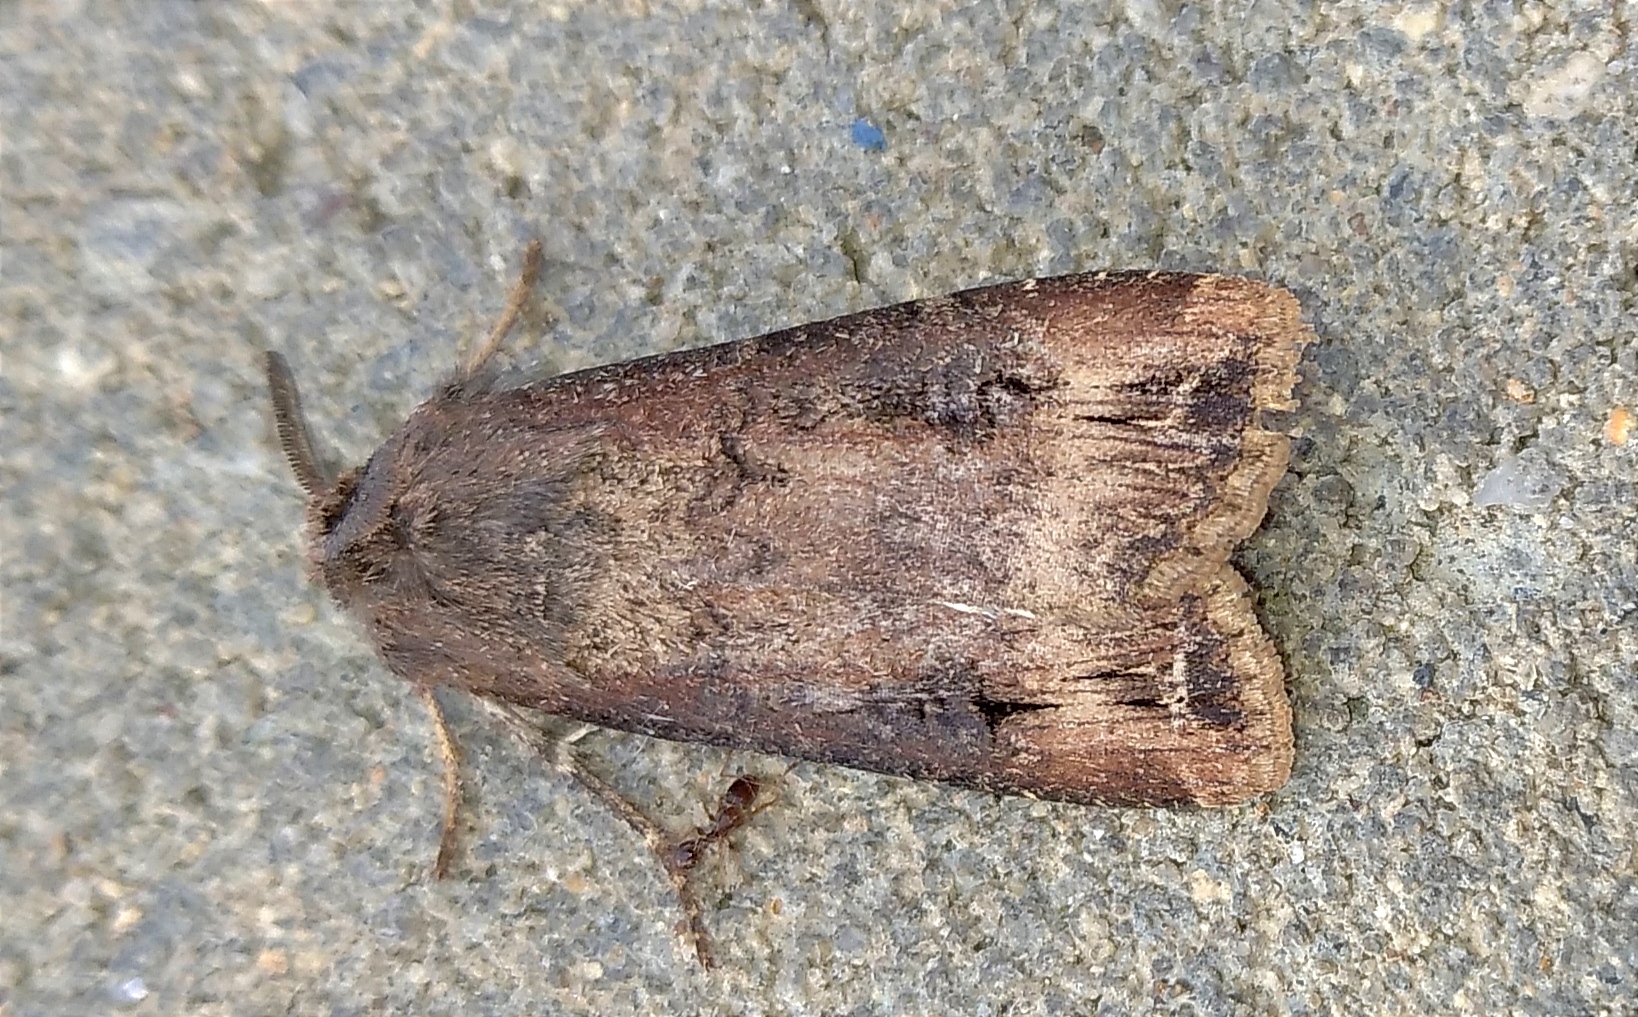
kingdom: Animalia
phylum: Arthropoda
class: Insecta
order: Lepidoptera
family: Noctuidae
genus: Agrotis
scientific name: Agrotis ipsilon
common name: Dark sword-grass
